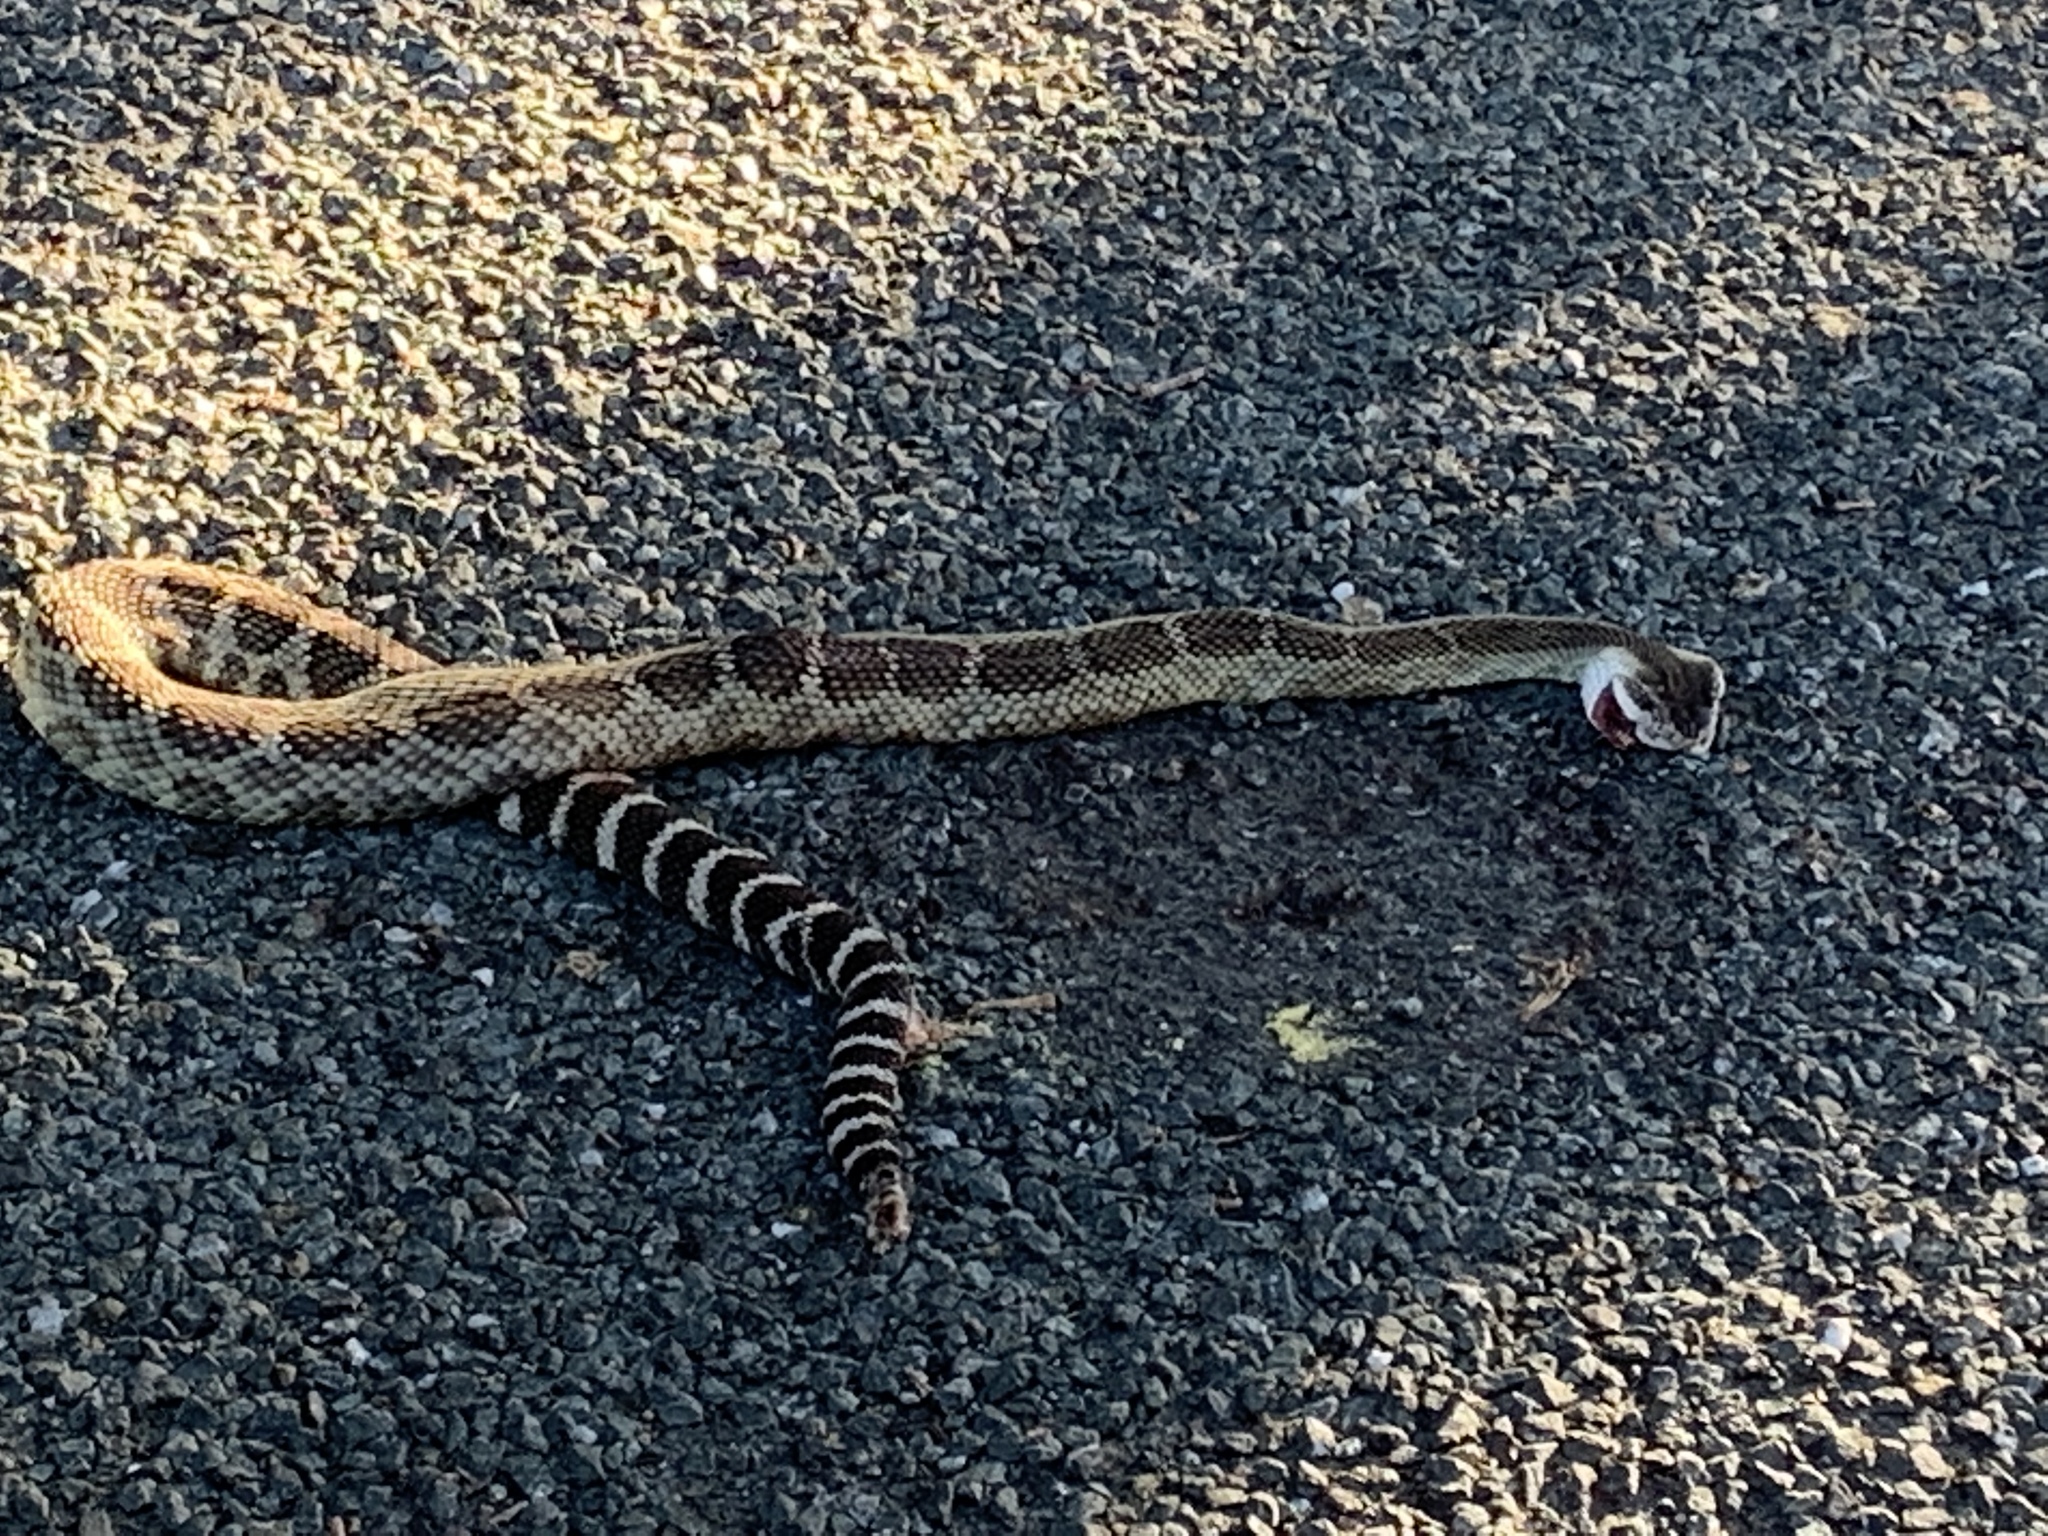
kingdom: Animalia
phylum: Chordata
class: Squamata
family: Viperidae
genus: Crotalus
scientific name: Crotalus oreganus
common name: Abyssus
